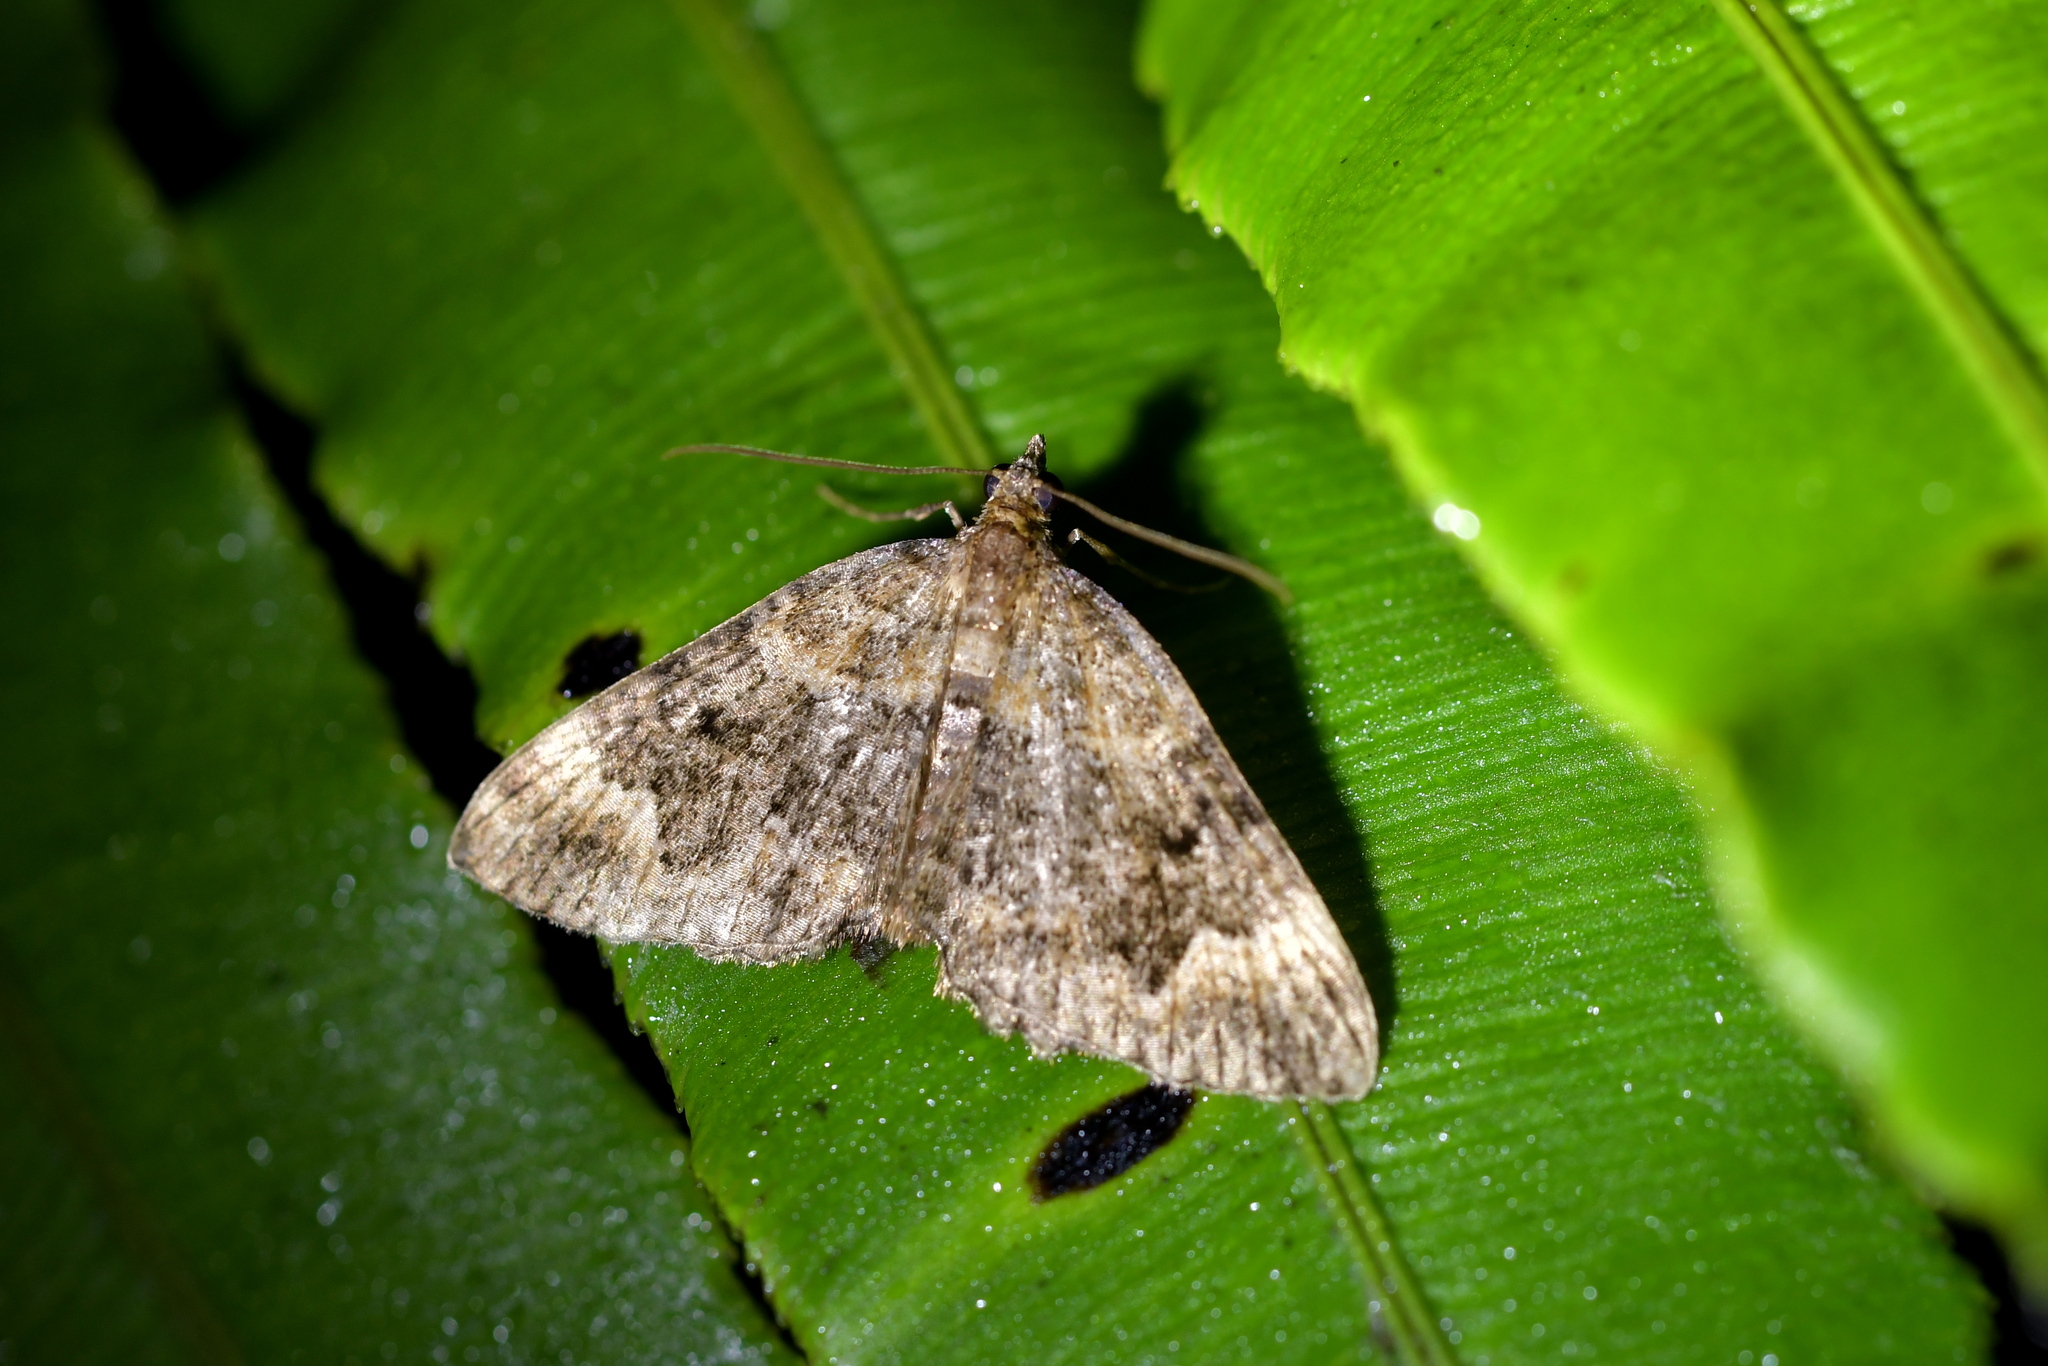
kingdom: Animalia
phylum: Arthropoda
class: Insecta
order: Lepidoptera
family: Geometridae
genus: Hydriomena
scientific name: Hydriomena hemizona
